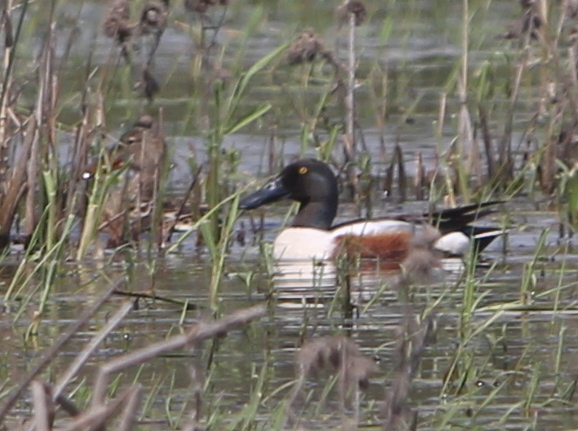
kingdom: Animalia
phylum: Chordata
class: Aves
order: Anseriformes
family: Anatidae
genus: Spatula
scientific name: Spatula clypeata
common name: Northern shoveler
